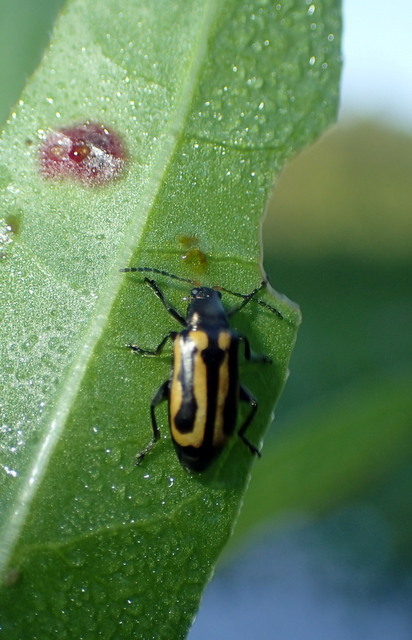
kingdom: Animalia
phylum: Arthropoda
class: Insecta
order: Coleoptera
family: Chrysomelidae
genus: Agasicles
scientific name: Agasicles hygrophila
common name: Alligatorweed flea beetle
